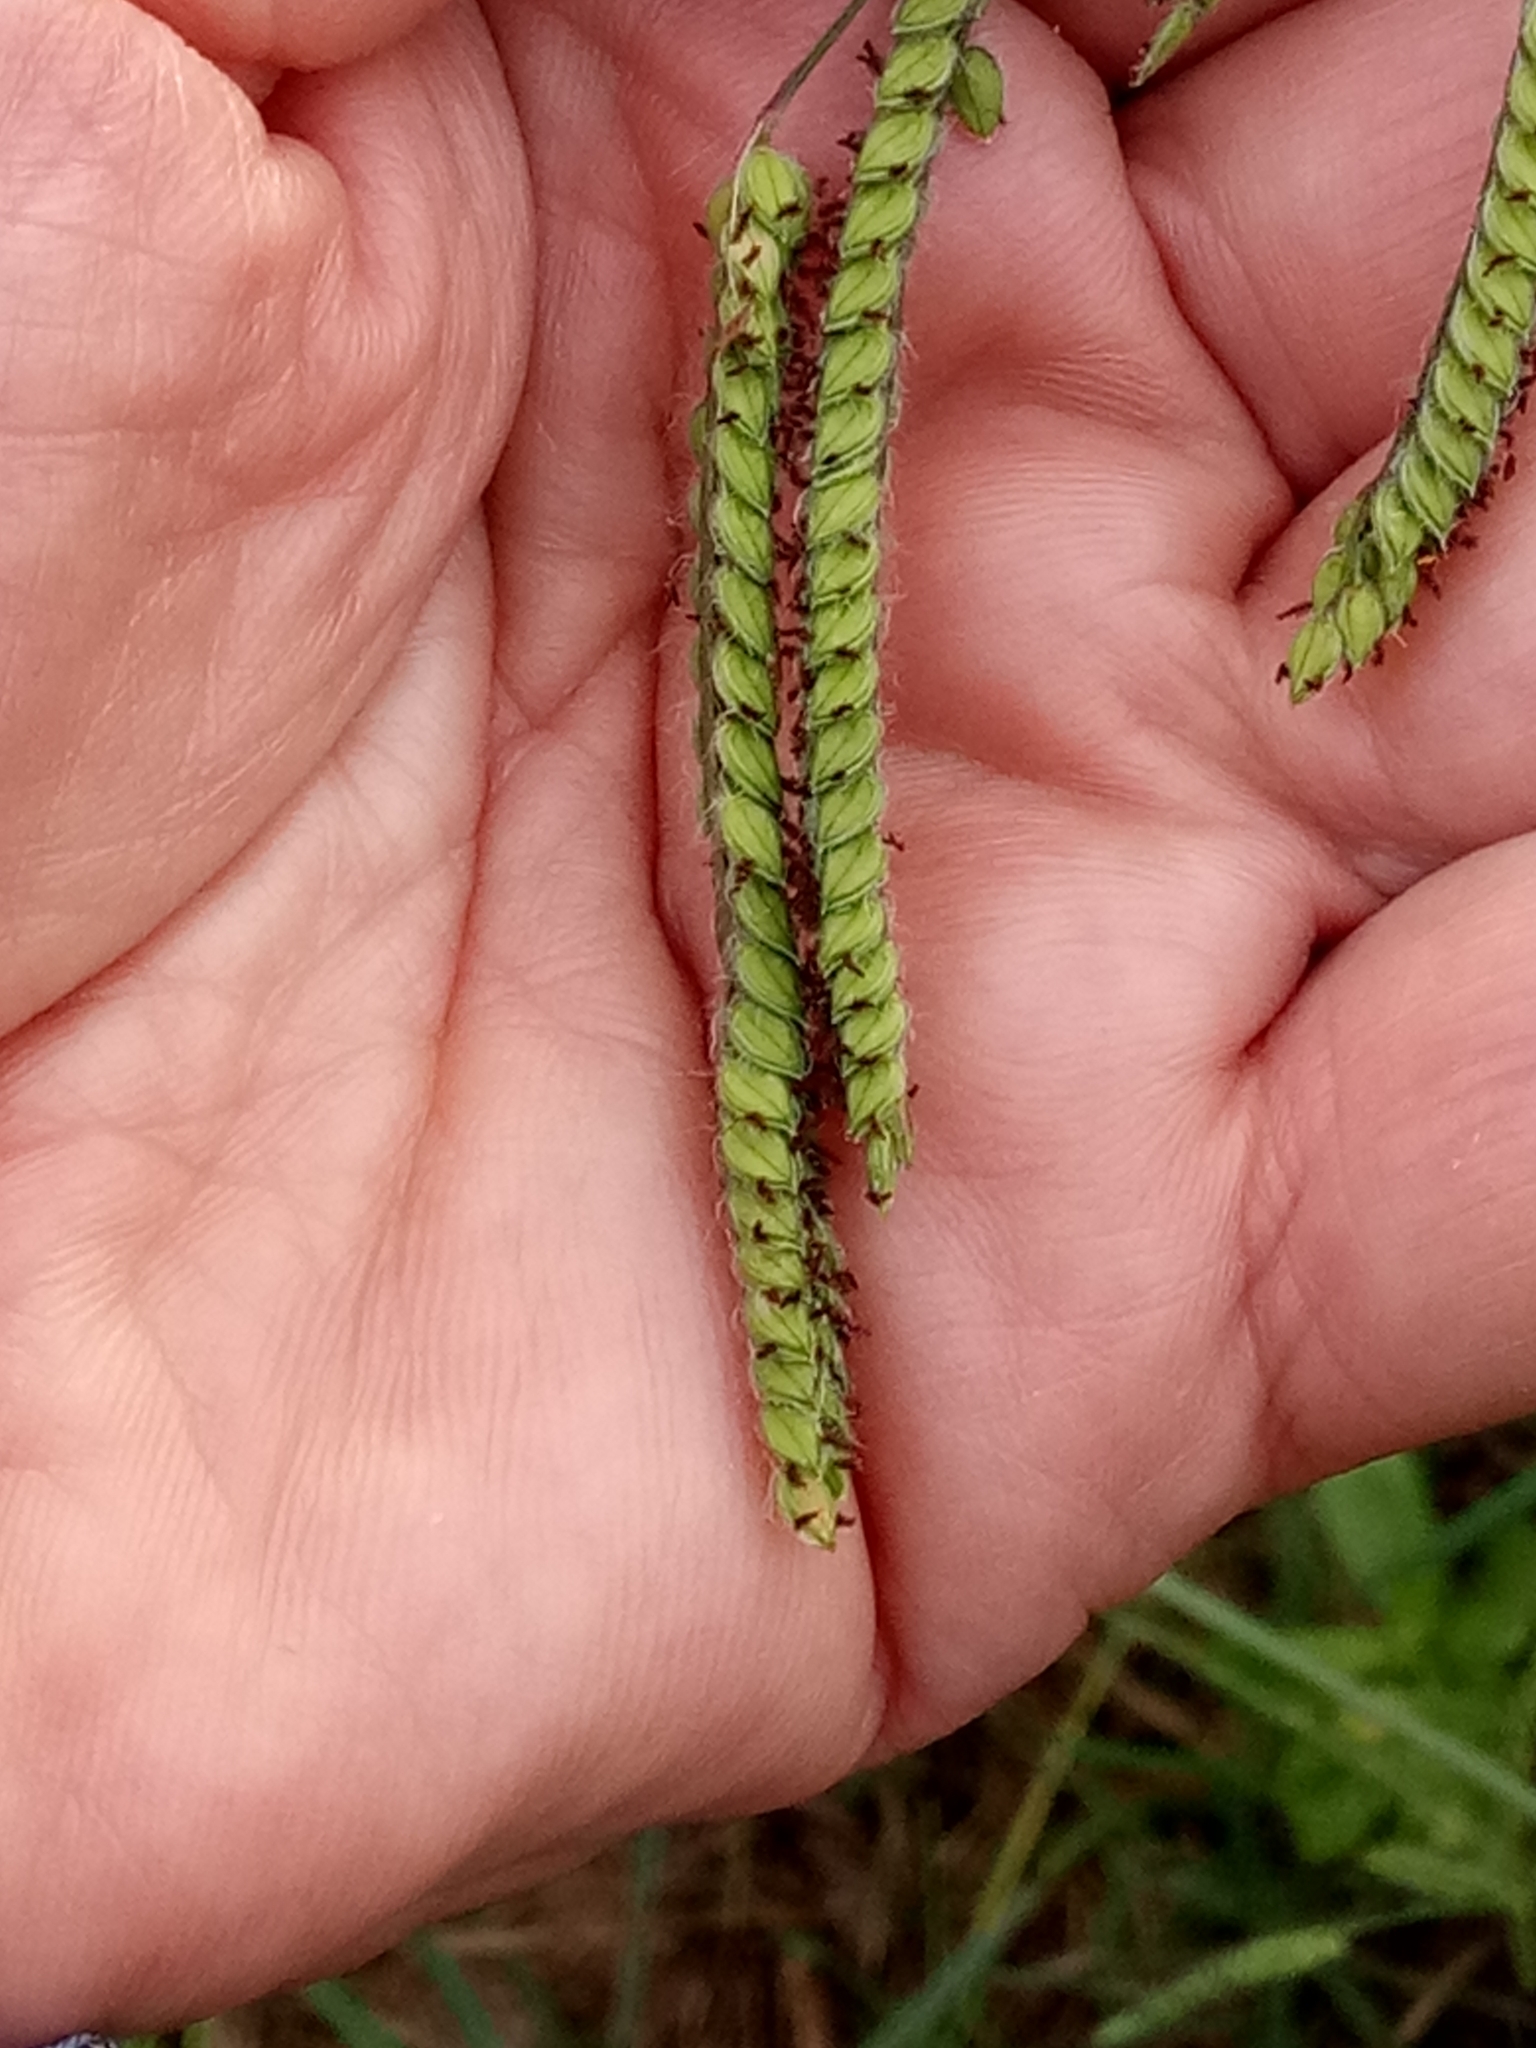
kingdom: Plantae
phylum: Tracheophyta
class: Liliopsida
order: Poales
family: Poaceae
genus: Paspalum
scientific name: Paspalum dilatatum
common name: Dallisgrass
